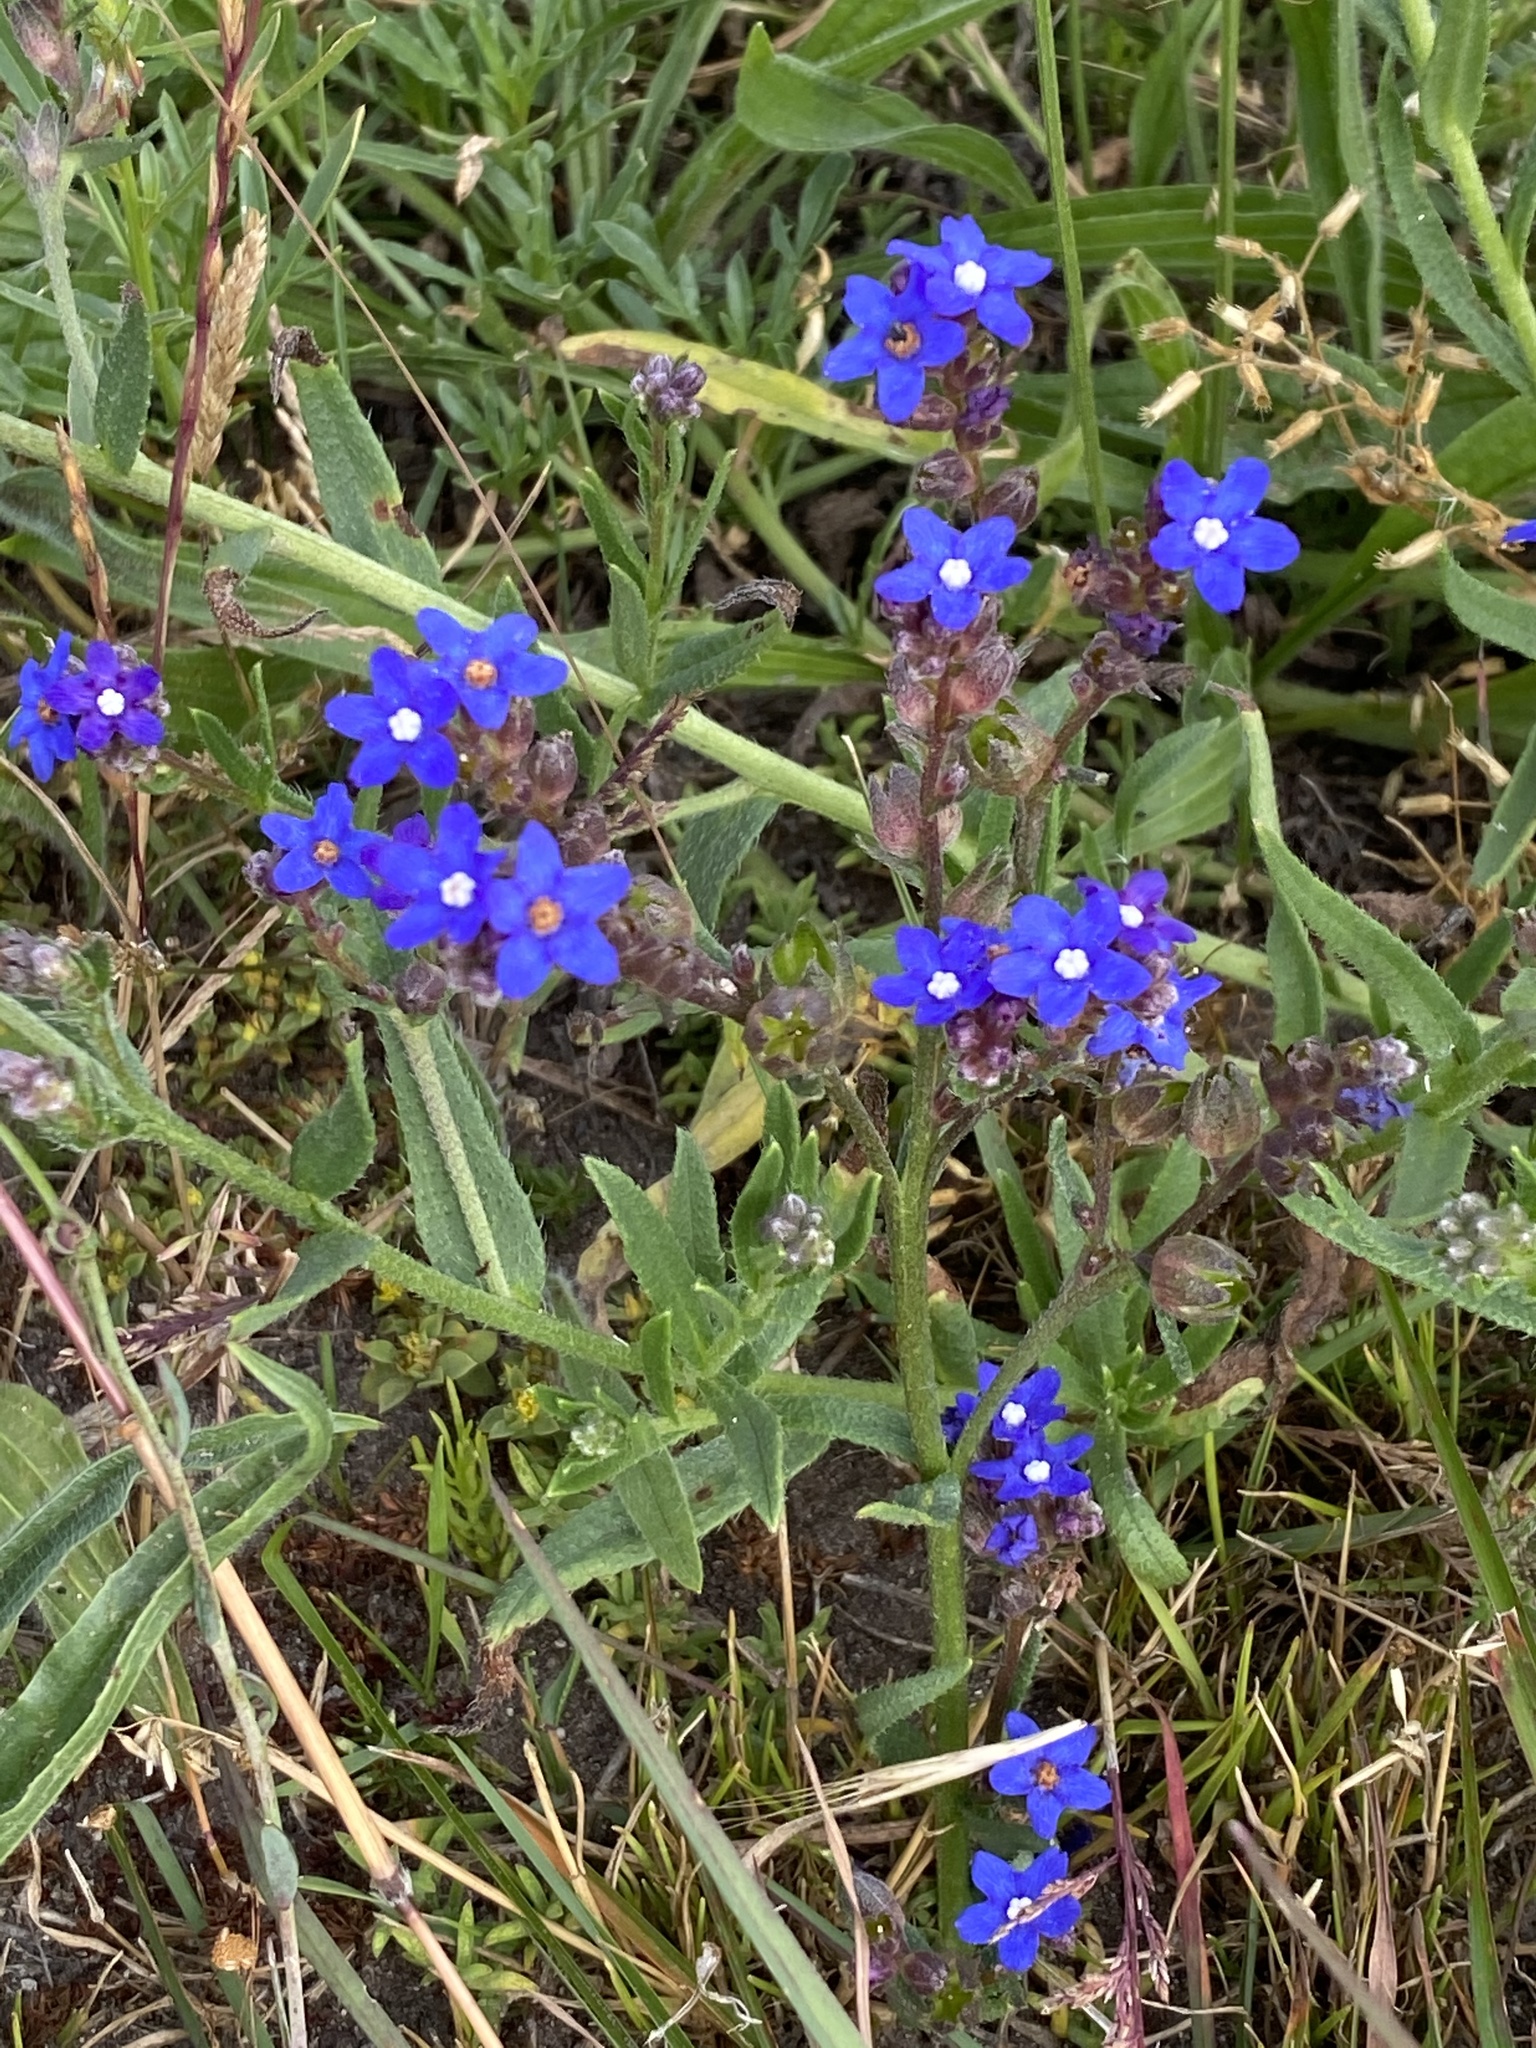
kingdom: Plantae
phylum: Tracheophyta
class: Magnoliopsida
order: Boraginales
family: Boraginaceae
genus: Anchusa
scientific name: Anchusa capensis
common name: Cape bugloss
